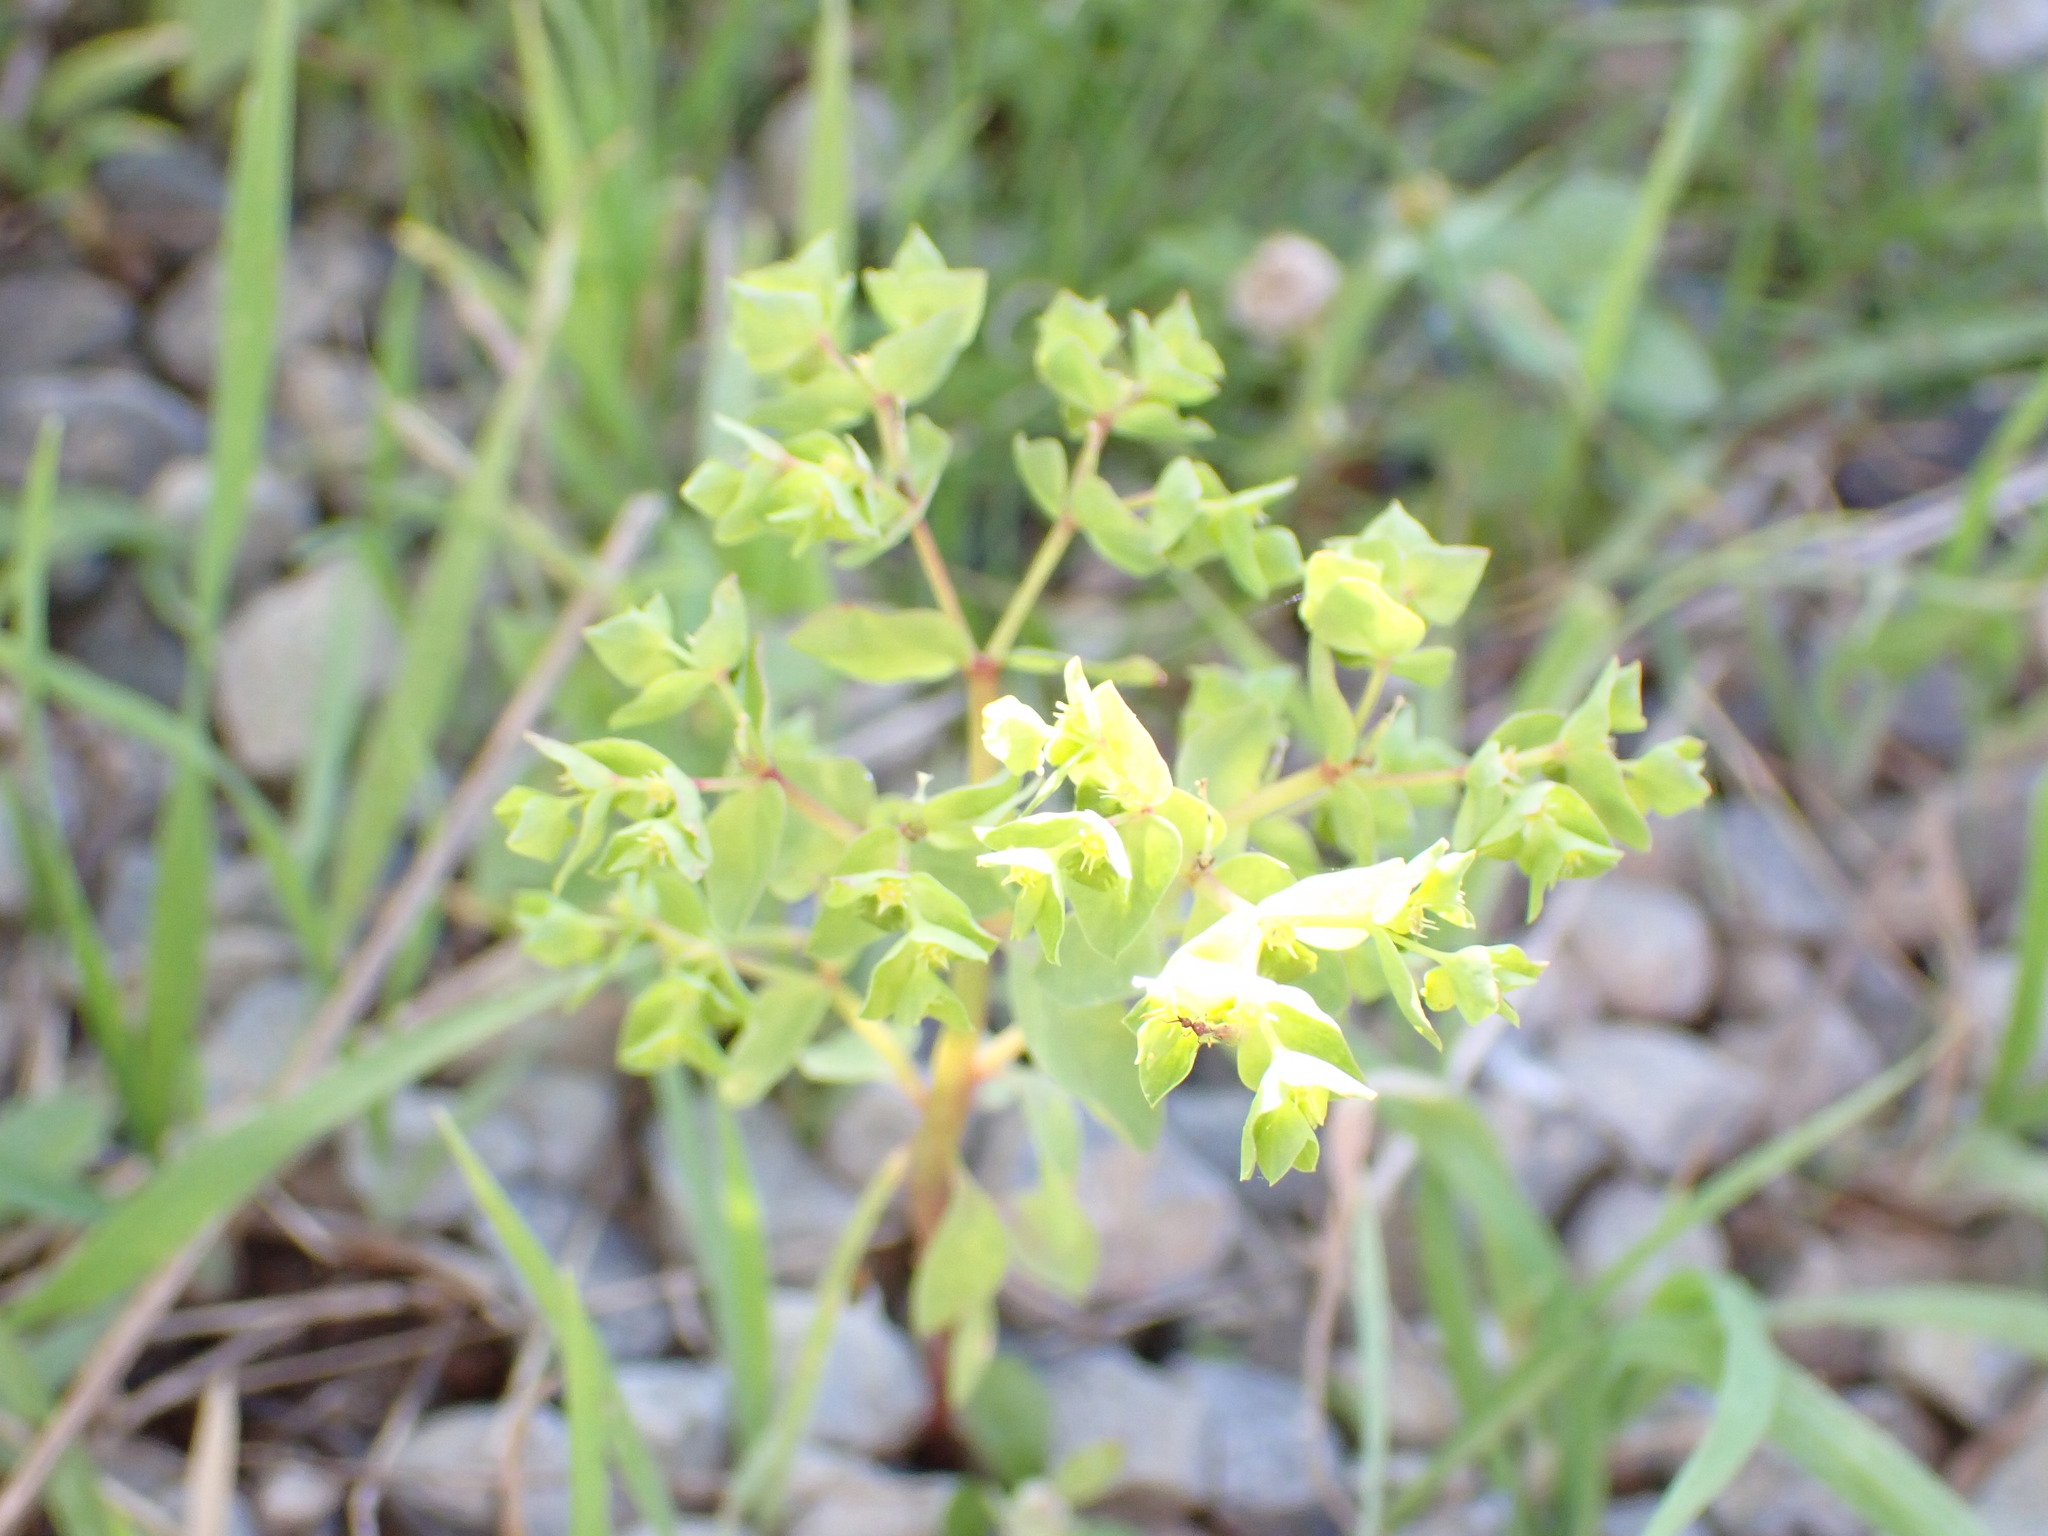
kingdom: Plantae
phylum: Tracheophyta
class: Magnoliopsida
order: Malpighiales
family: Euphorbiaceae
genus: Euphorbia
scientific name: Euphorbia peplus
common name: Petty spurge
